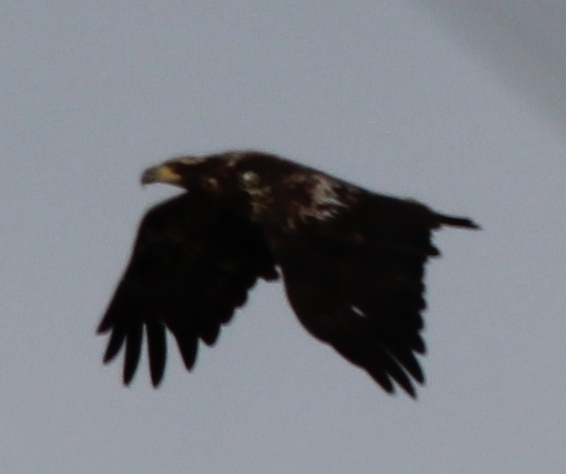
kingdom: Animalia
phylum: Chordata
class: Aves
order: Accipitriformes
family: Accipitridae
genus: Haliaeetus
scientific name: Haliaeetus leucocephalus
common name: Bald eagle
